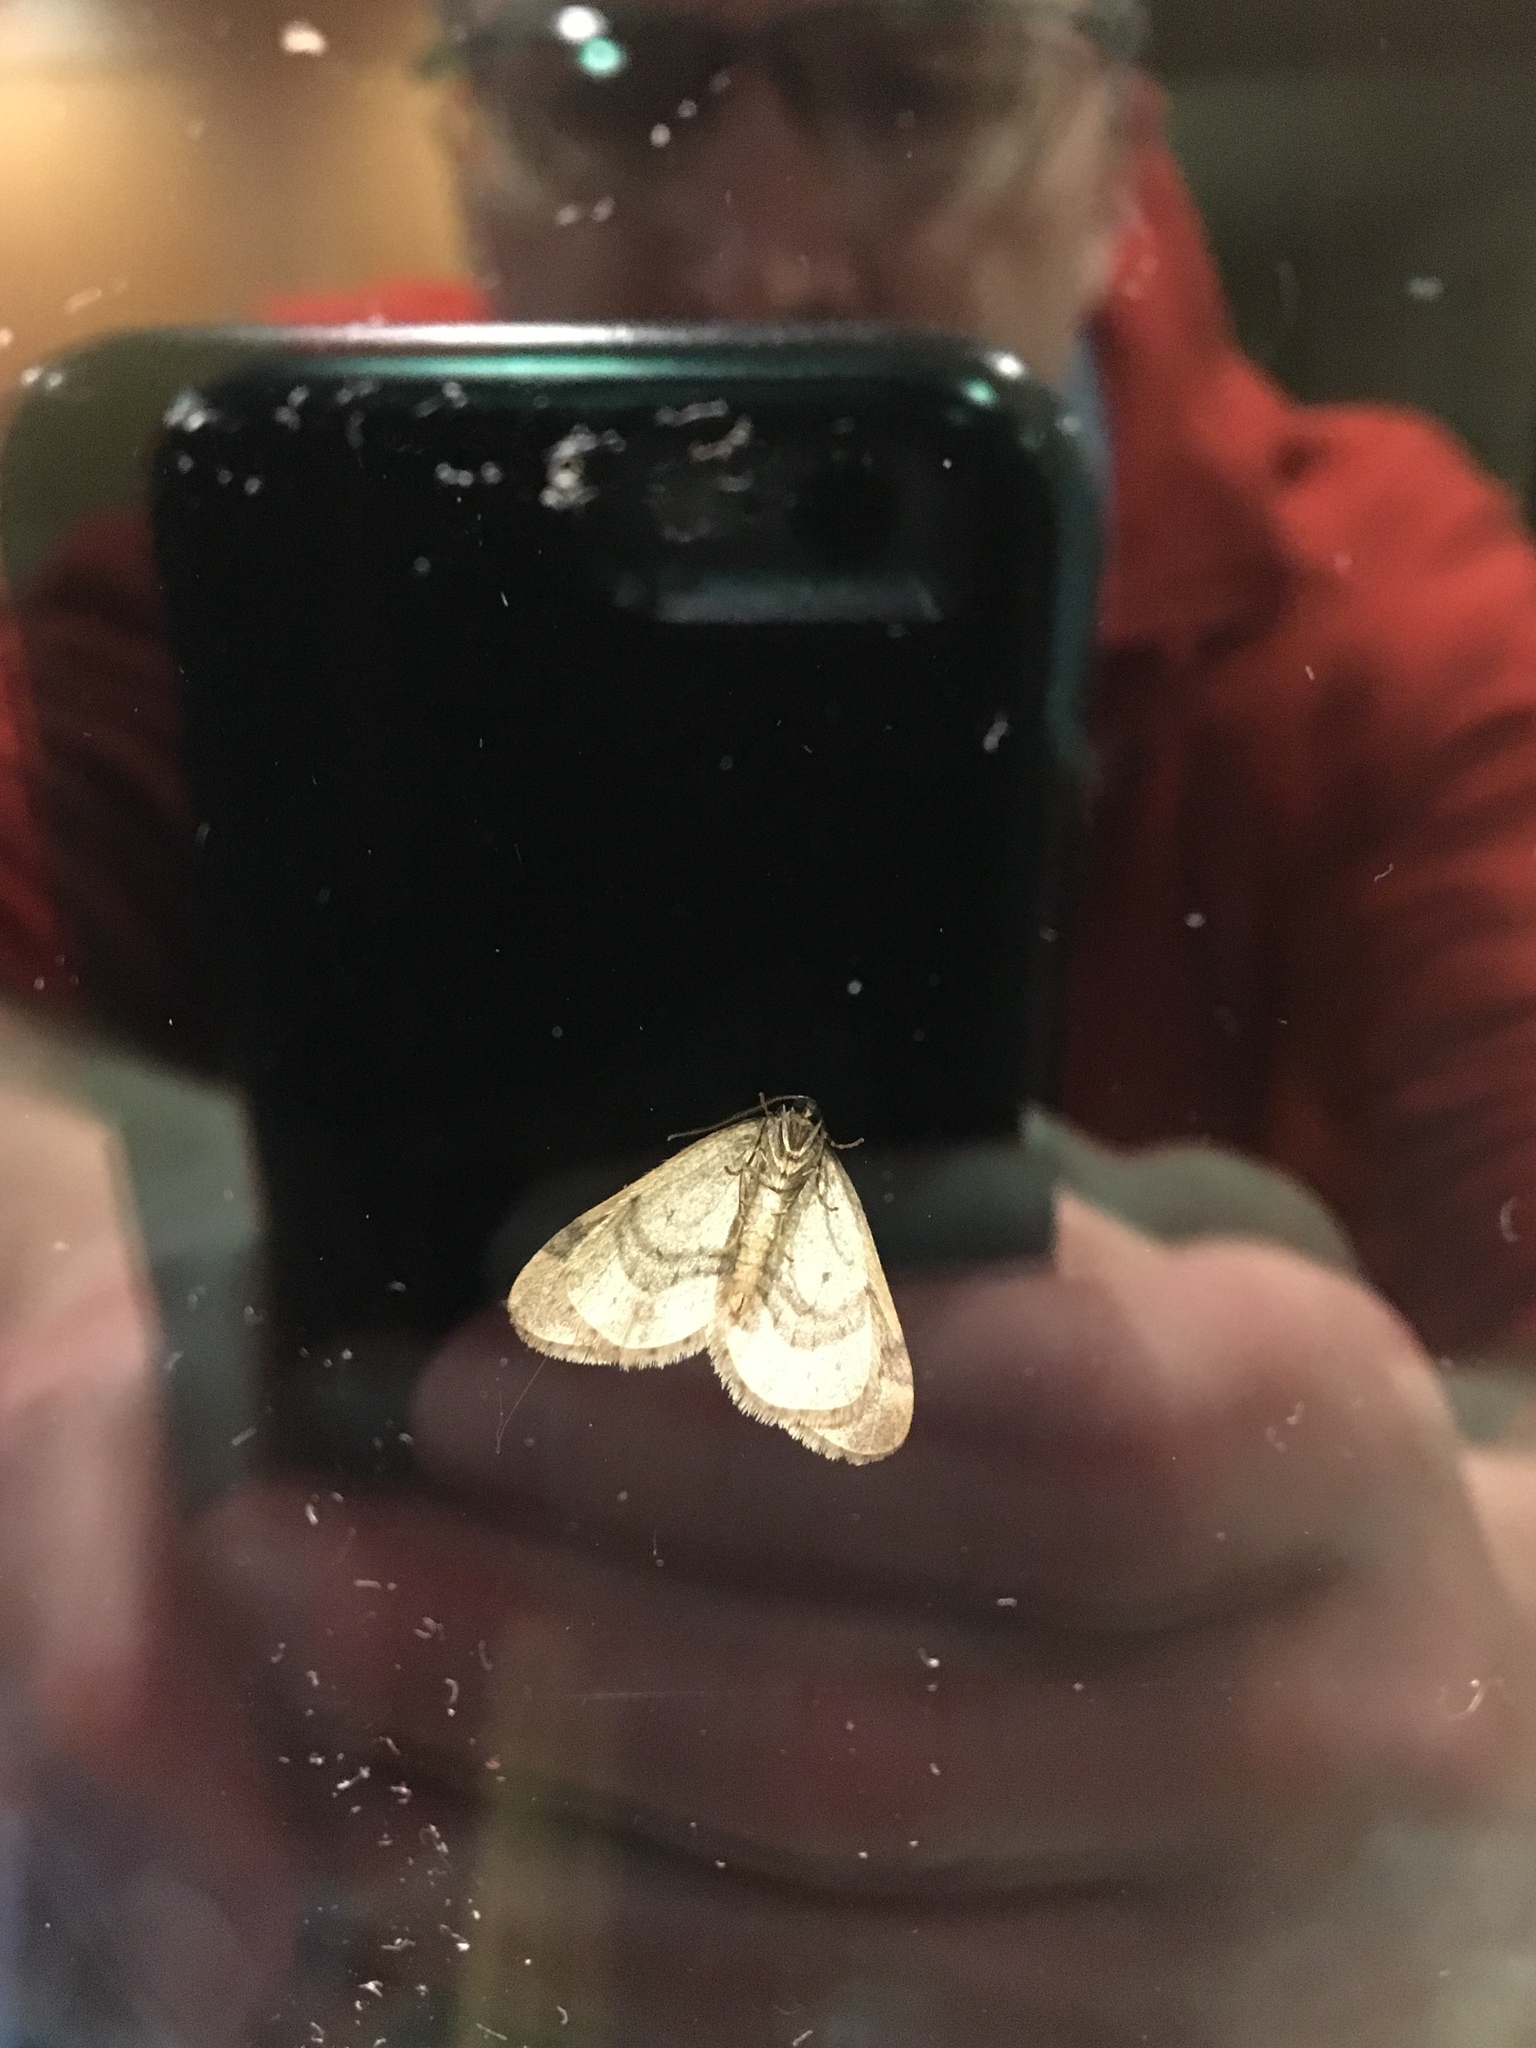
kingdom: Animalia
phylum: Arthropoda
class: Insecta
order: Lepidoptera
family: Geometridae
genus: Operophtera
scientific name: Operophtera brumata
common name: Winter moth
